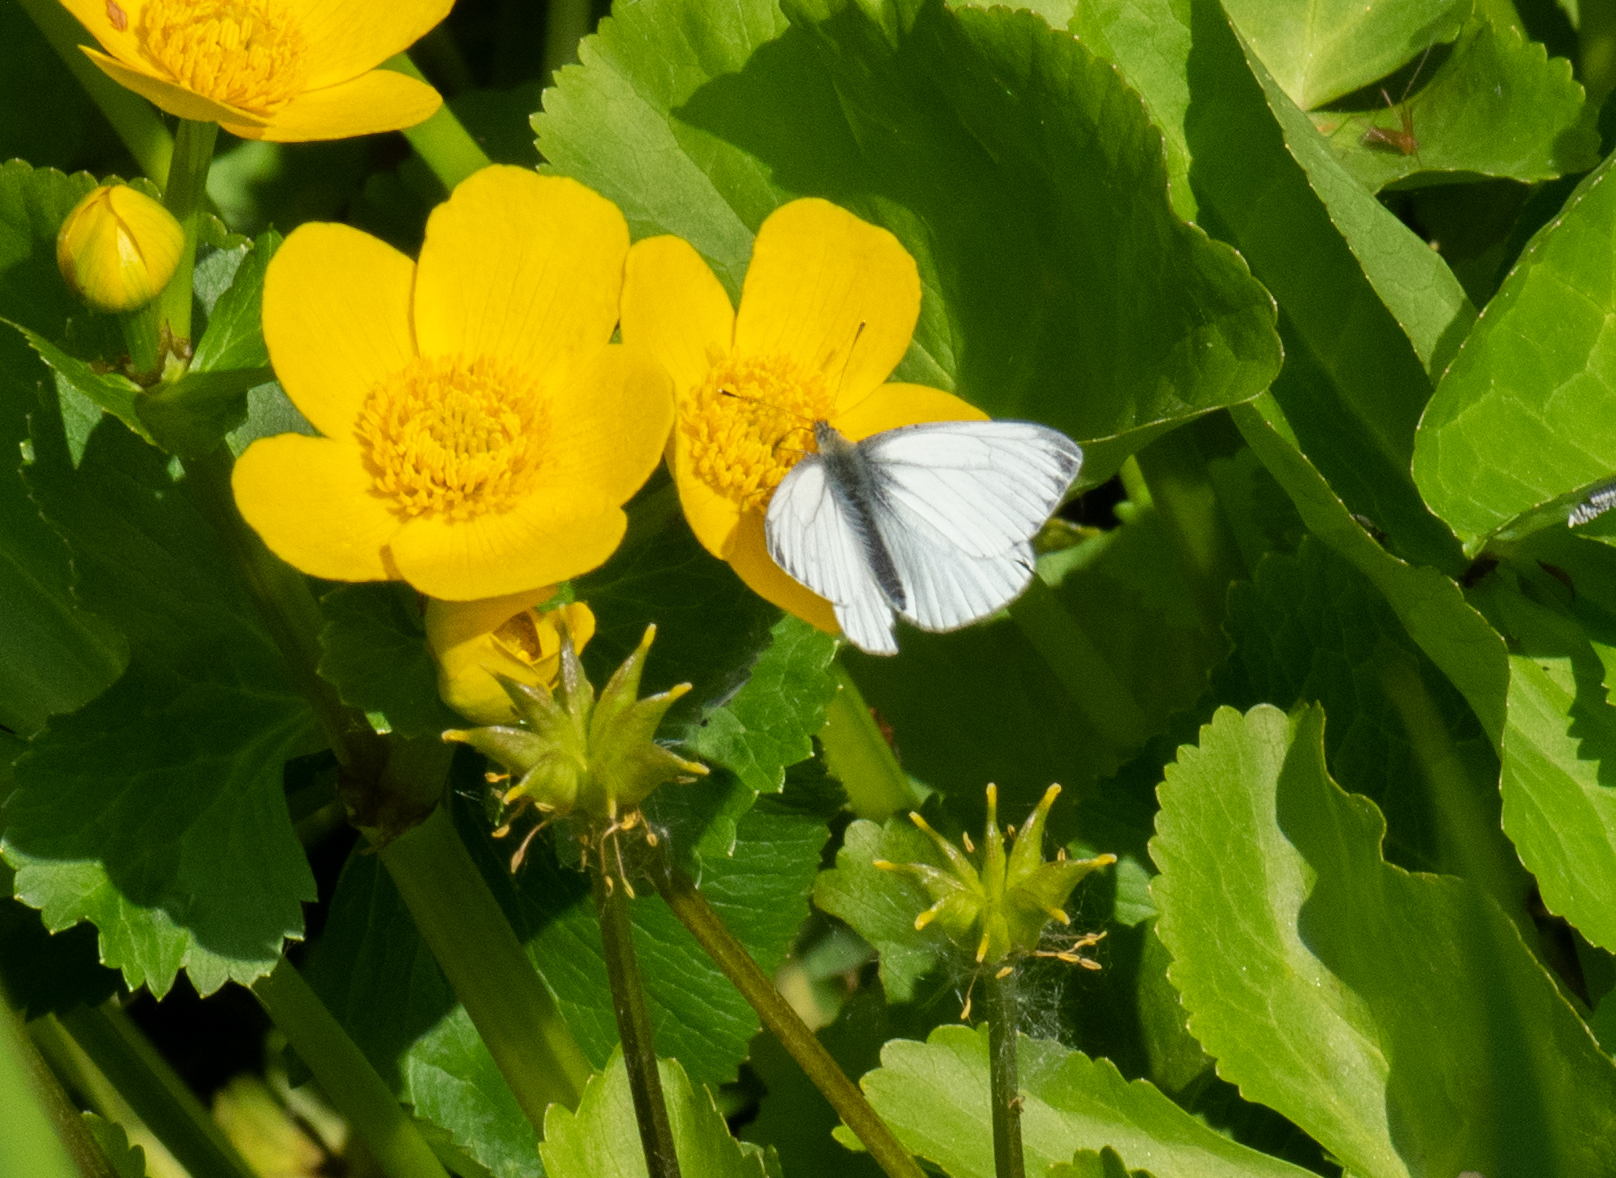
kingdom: Animalia
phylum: Arthropoda
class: Insecta
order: Lepidoptera
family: Pieridae
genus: Pieris
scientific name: Pieris napi
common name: Green-veined white
